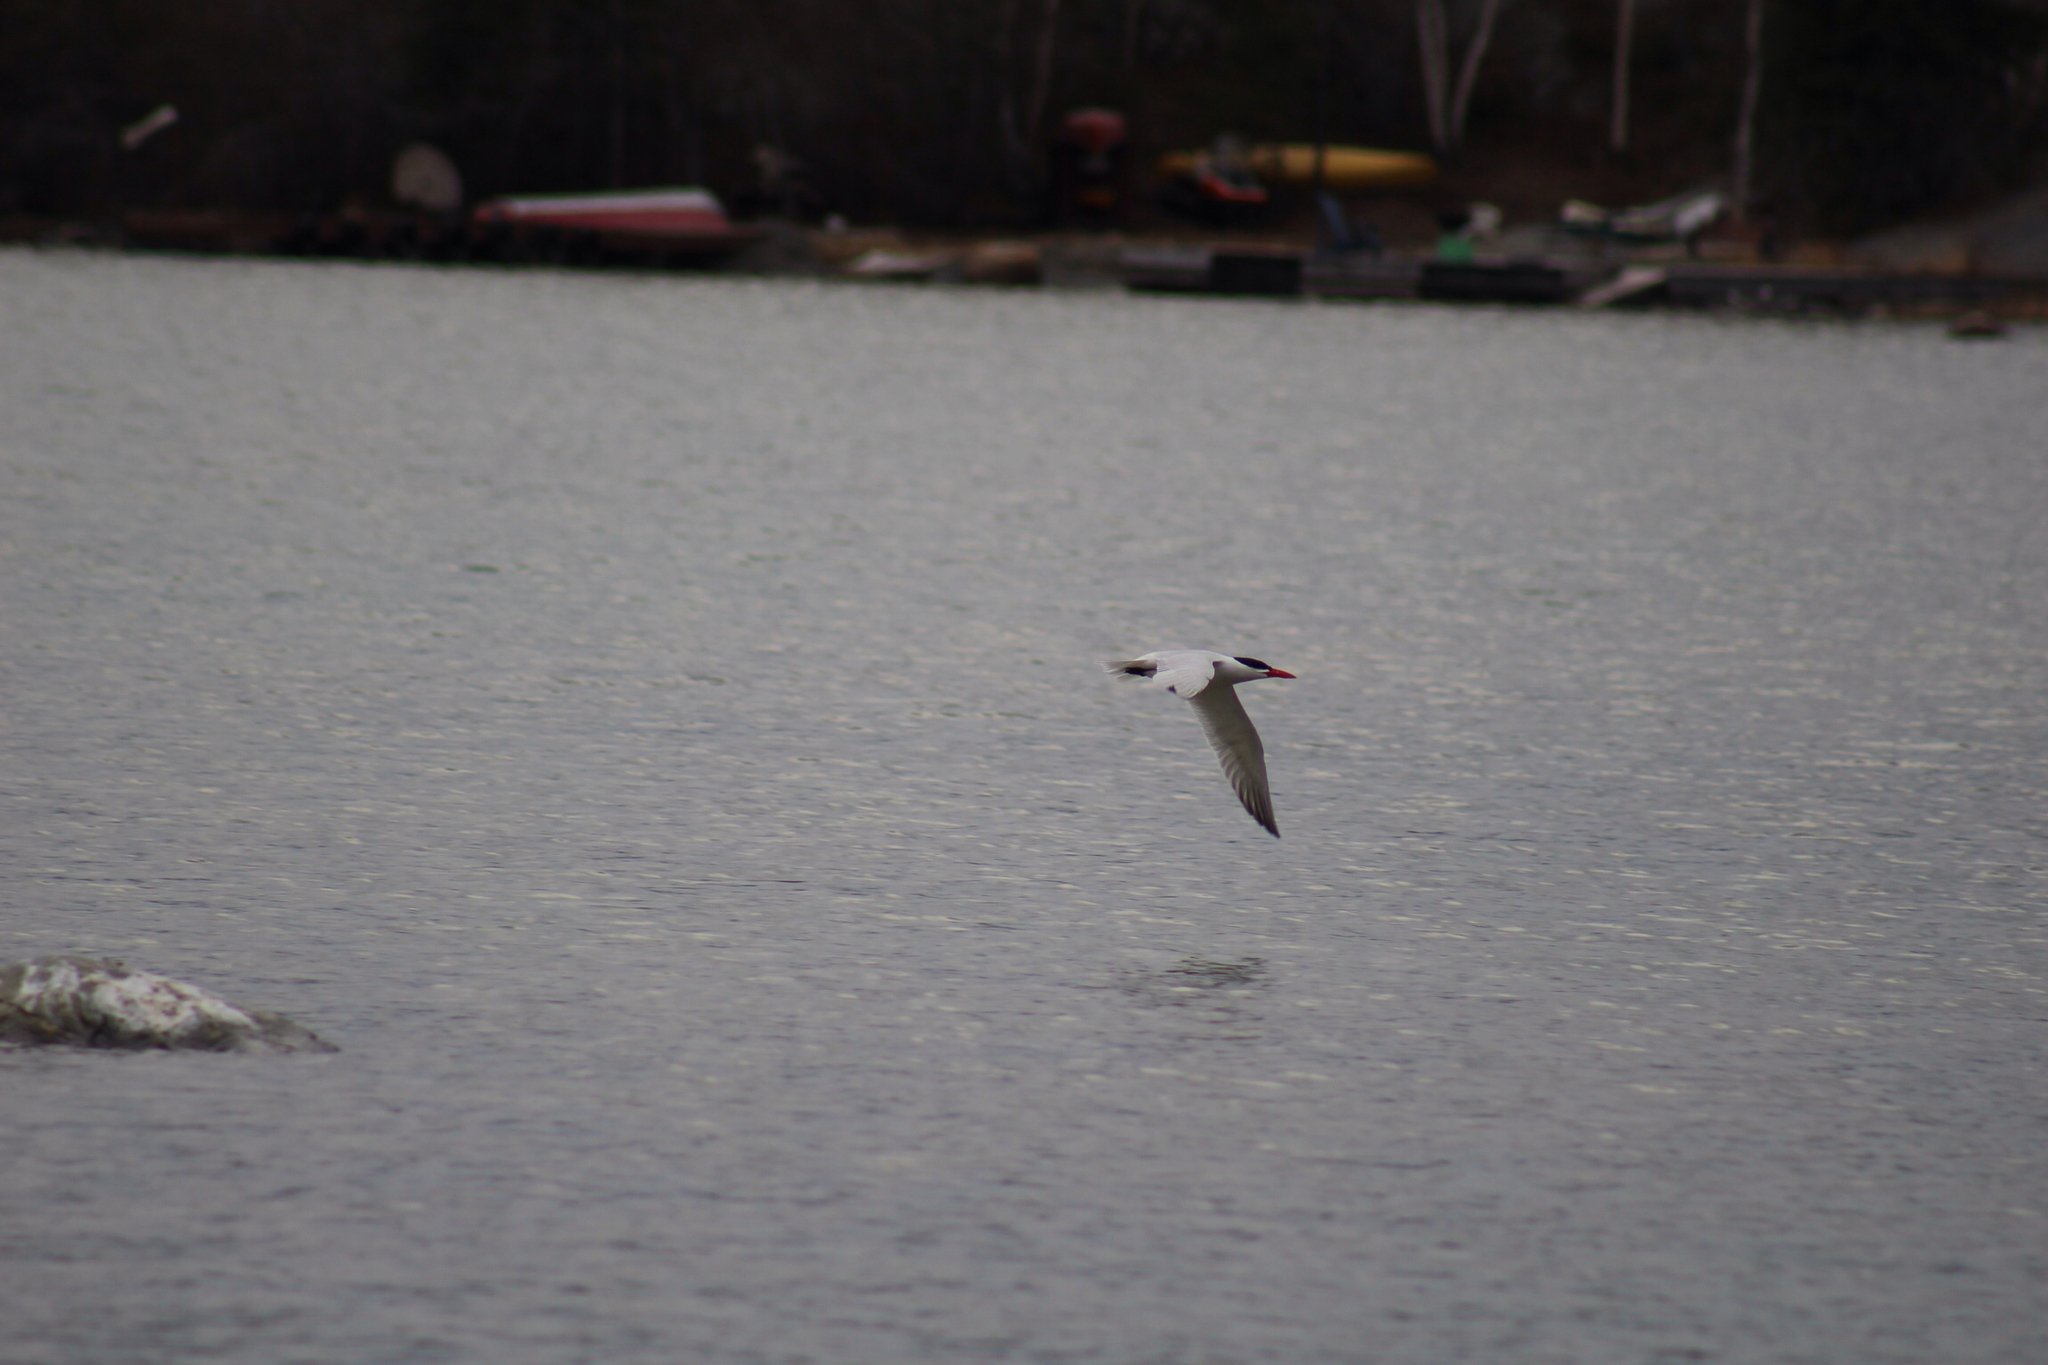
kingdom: Animalia
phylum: Chordata
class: Aves
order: Charadriiformes
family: Laridae
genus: Hydroprogne
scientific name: Hydroprogne caspia
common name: Caspian tern
